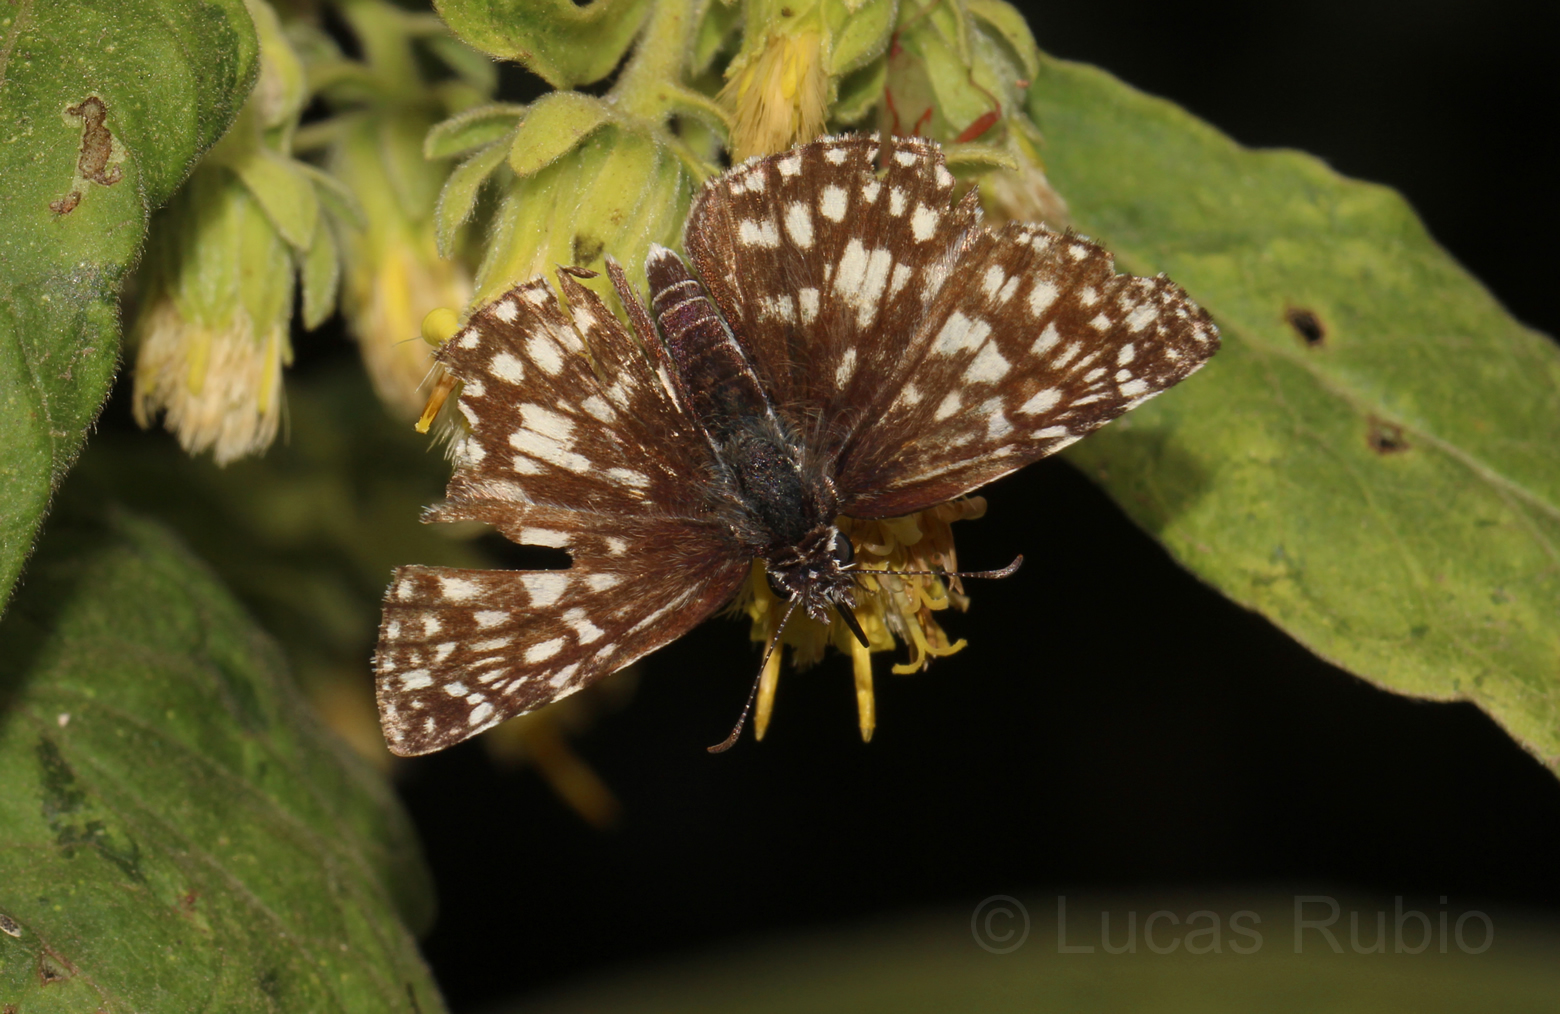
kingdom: Animalia
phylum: Arthropoda
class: Insecta
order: Lepidoptera
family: Hesperiidae
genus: Pyrgus
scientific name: Pyrgus oileus
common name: Tropical checkered-skipper
